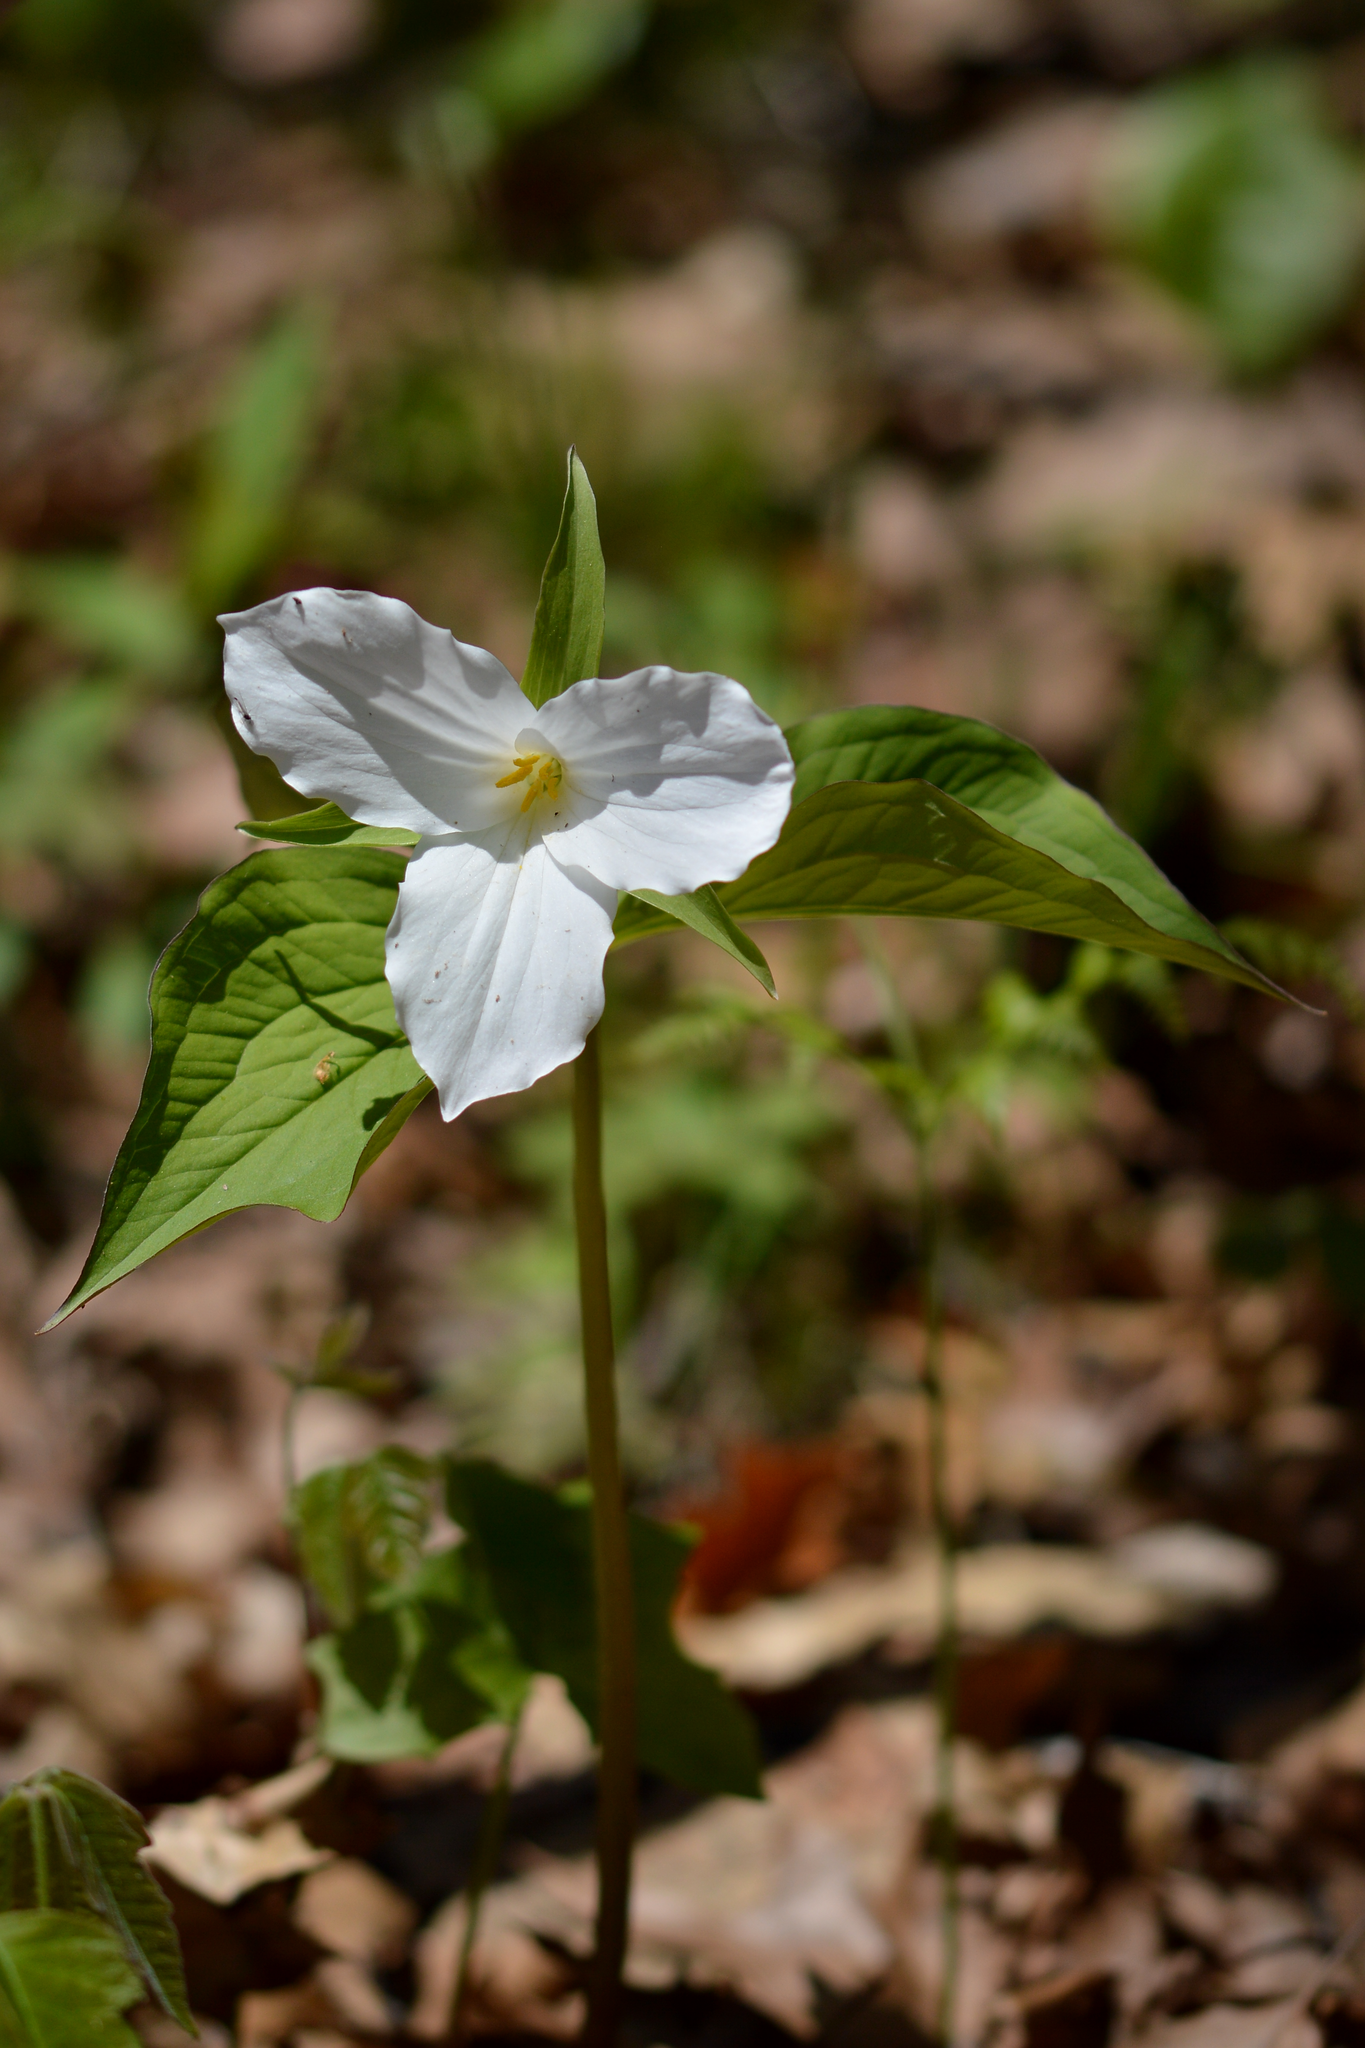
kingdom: Plantae
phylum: Tracheophyta
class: Liliopsida
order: Liliales
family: Melanthiaceae
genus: Trillium
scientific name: Trillium grandiflorum
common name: Great white trillium
